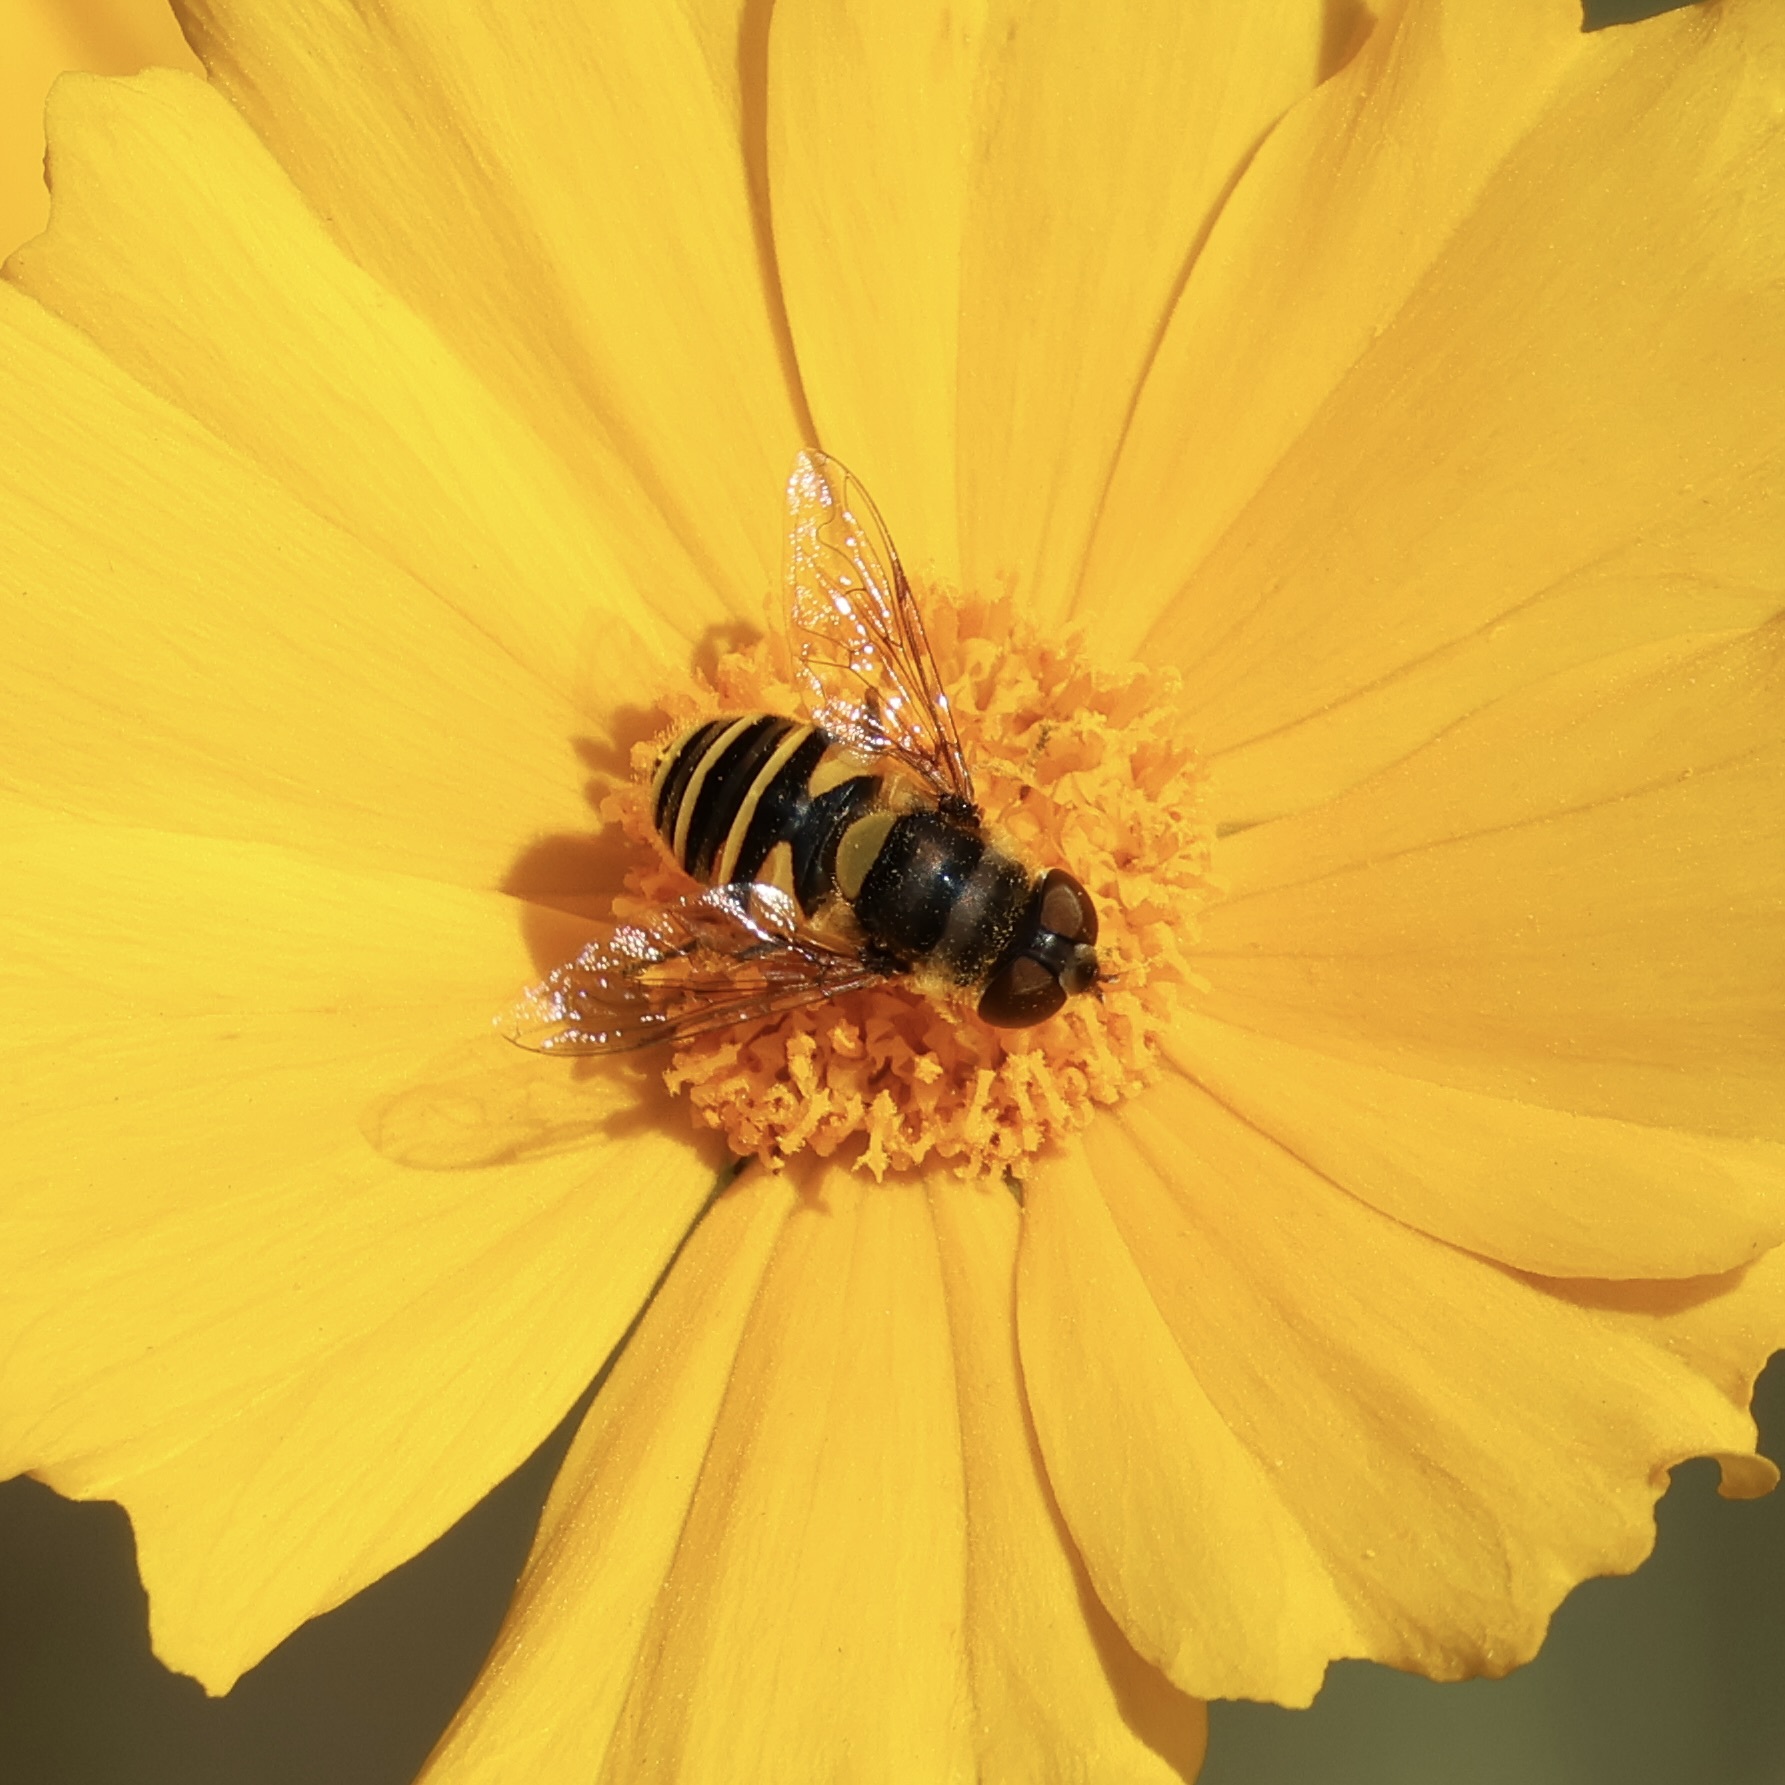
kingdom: Animalia
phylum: Arthropoda
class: Insecta
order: Diptera
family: Syrphidae
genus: Eristalis
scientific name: Eristalis transversa
